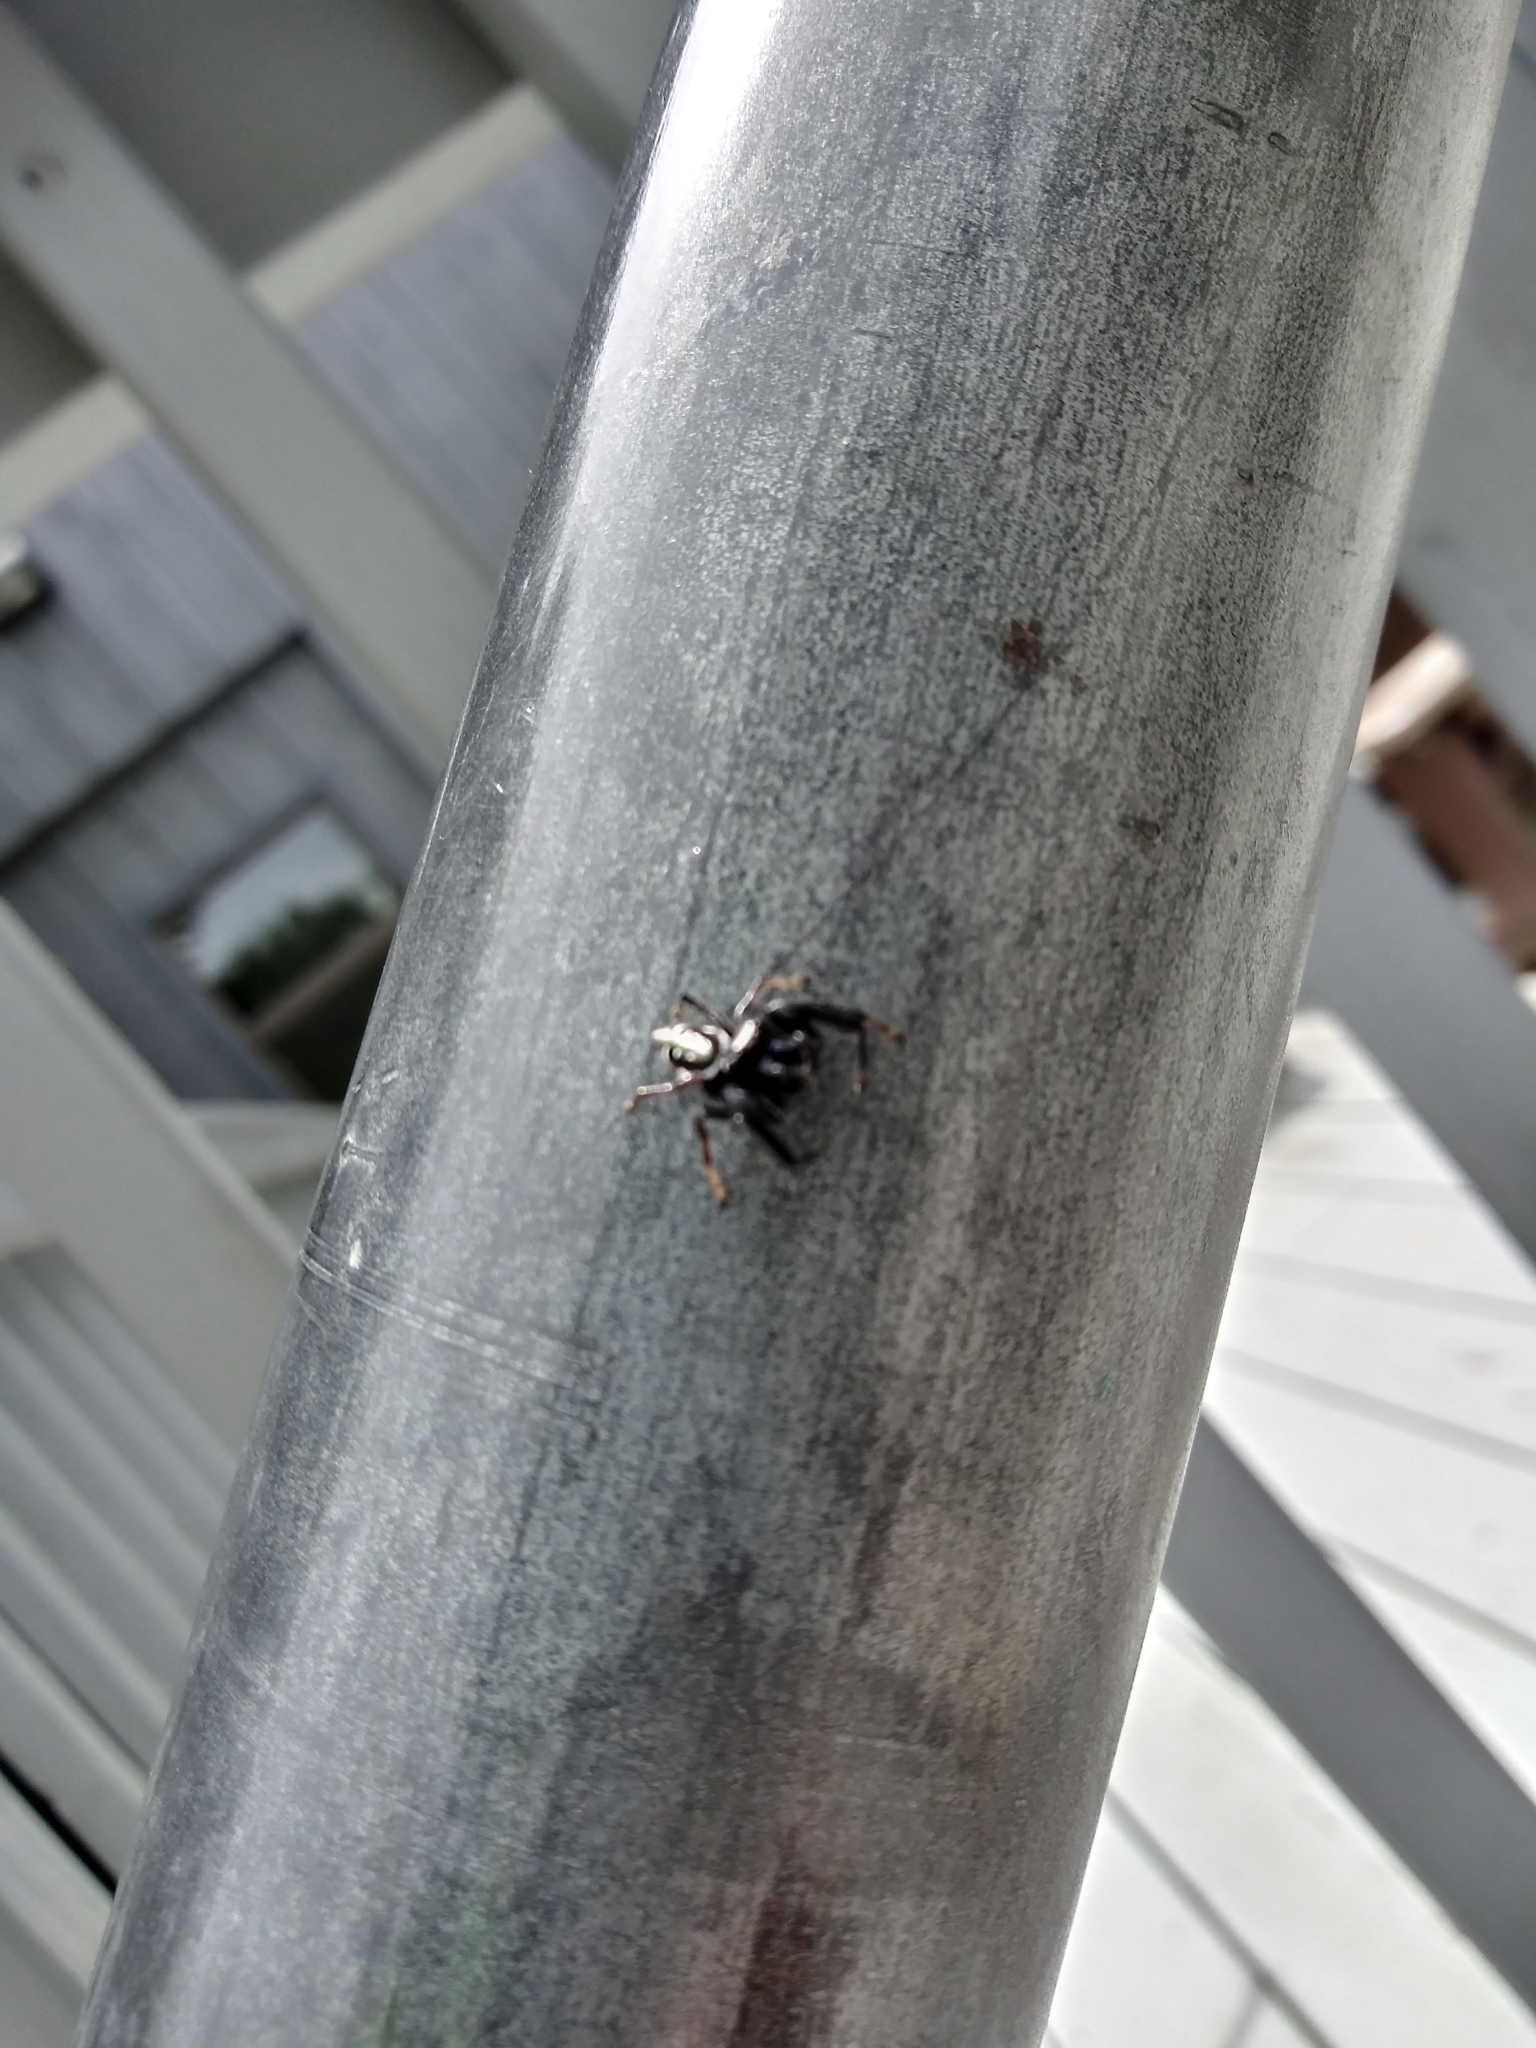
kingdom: Animalia
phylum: Arthropoda
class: Arachnida
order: Araneae
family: Salticidae
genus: Paraphidippus
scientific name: Paraphidippus aurantius
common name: Jumping spiders
